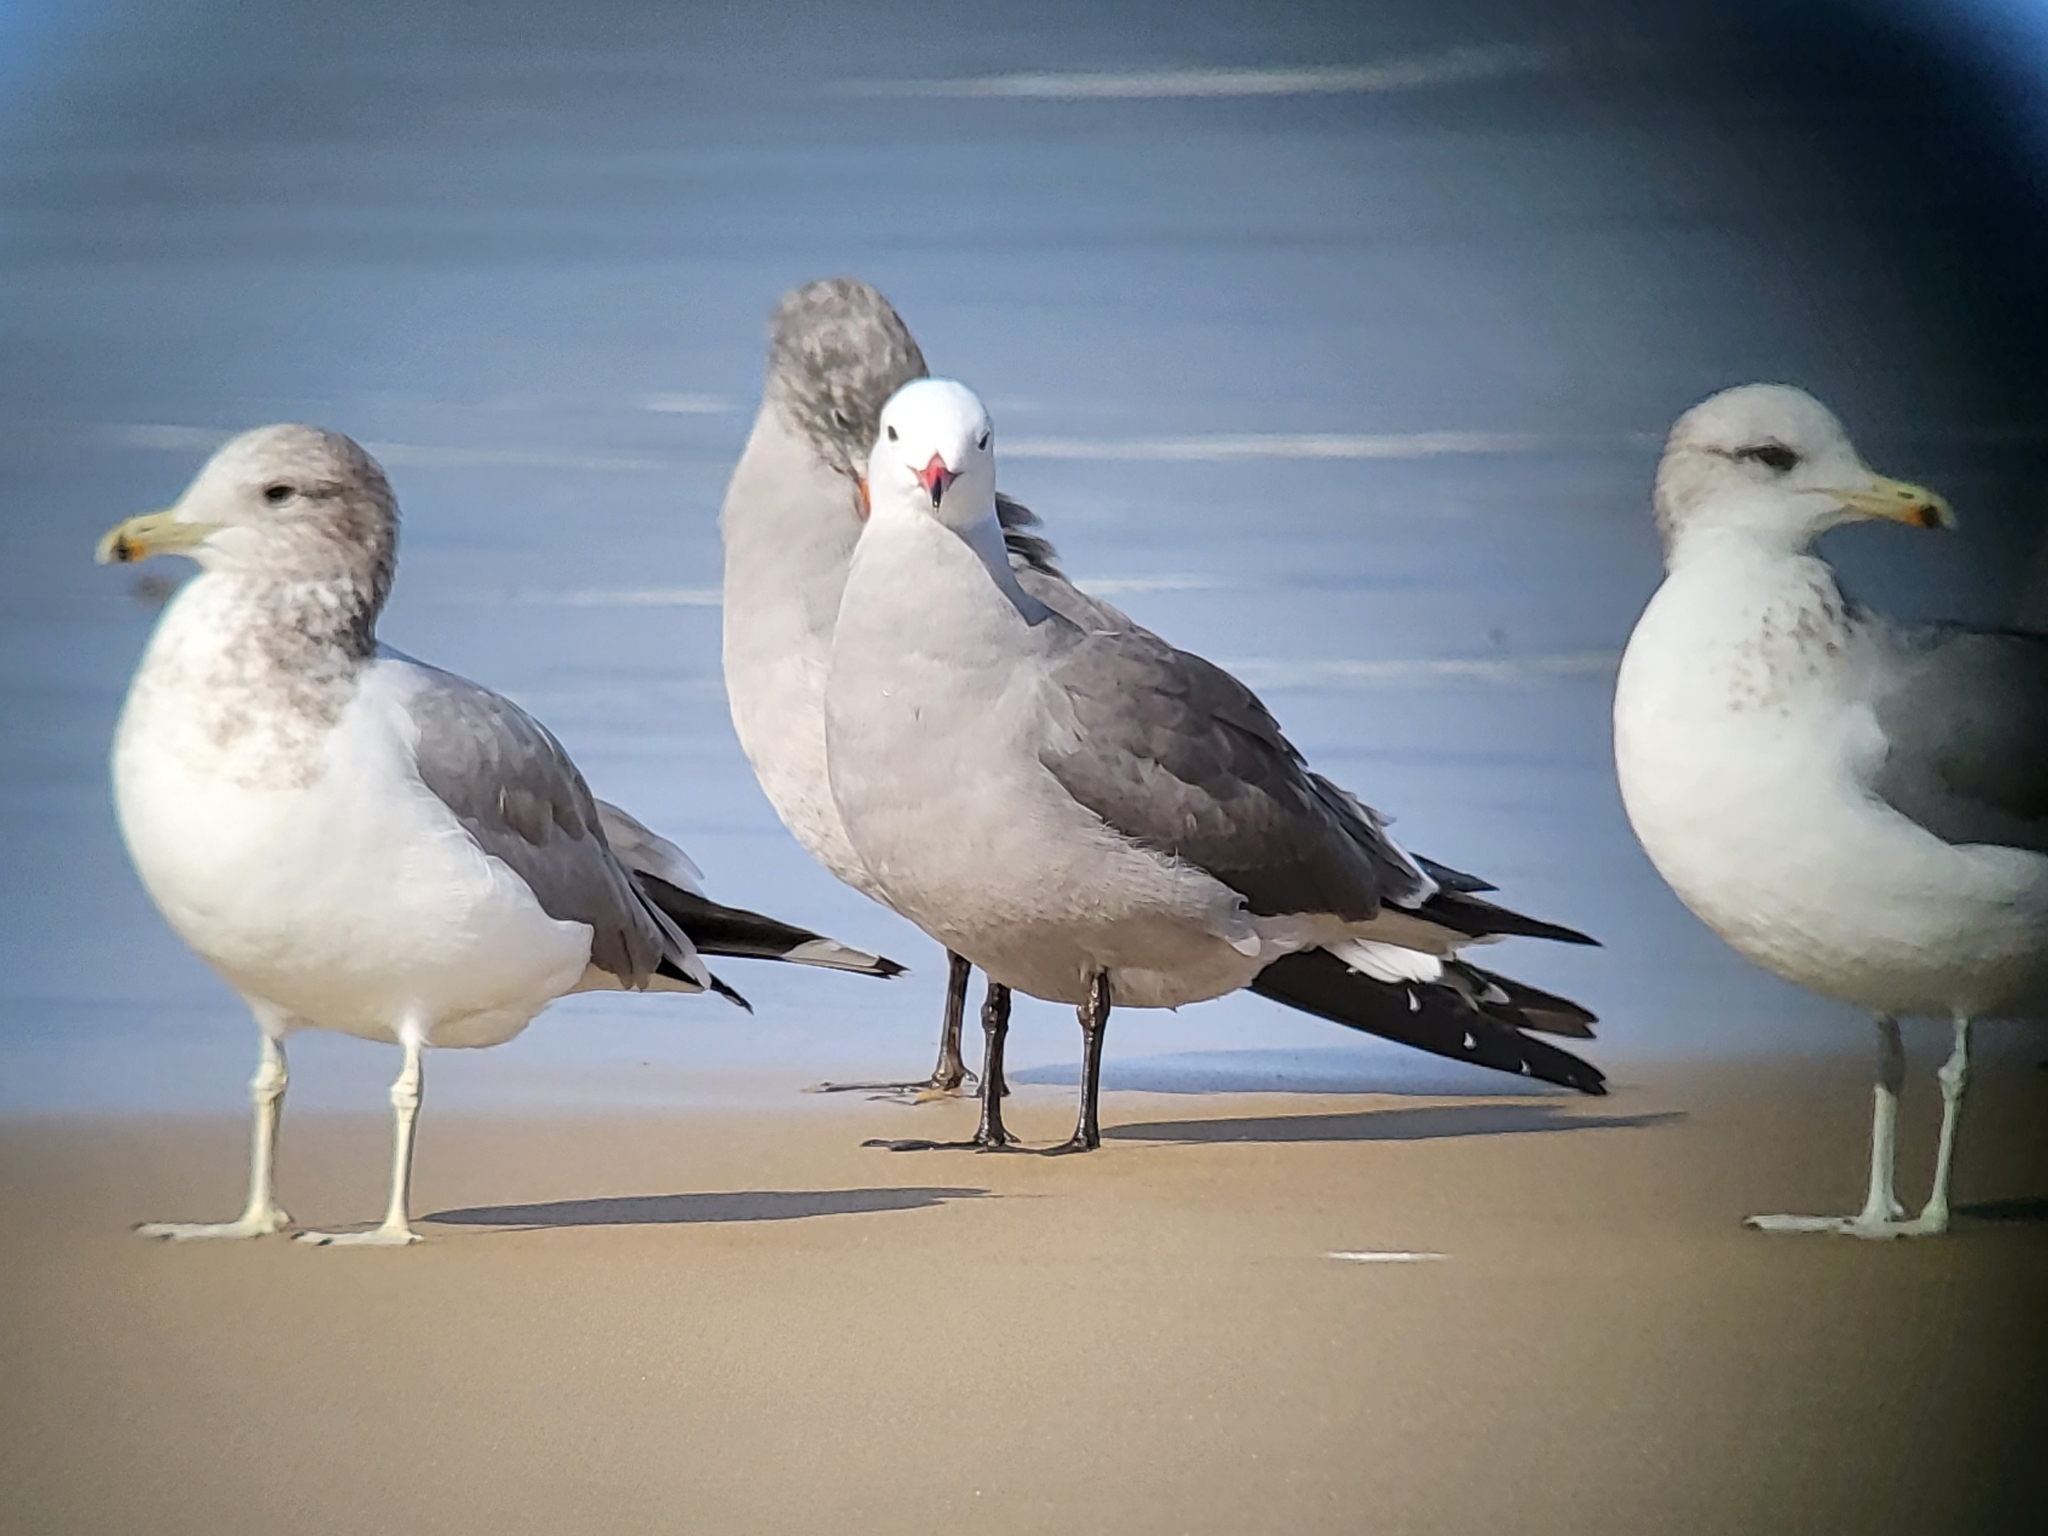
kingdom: Animalia
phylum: Chordata
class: Aves
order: Charadriiformes
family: Laridae
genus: Larus
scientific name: Larus heermanni
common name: Heermann's gull
